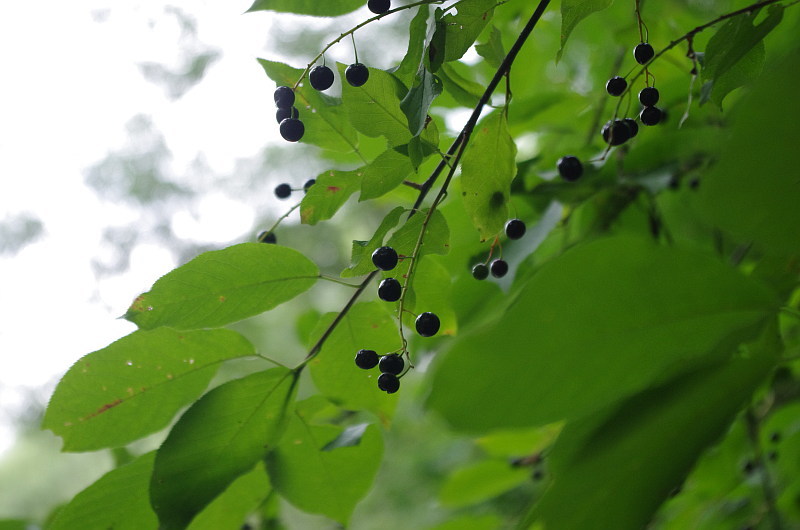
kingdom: Plantae
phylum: Tracheophyta
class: Magnoliopsida
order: Rosales
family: Rosaceae
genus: Prunus
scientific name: Prunus padus
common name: Bird cherry
